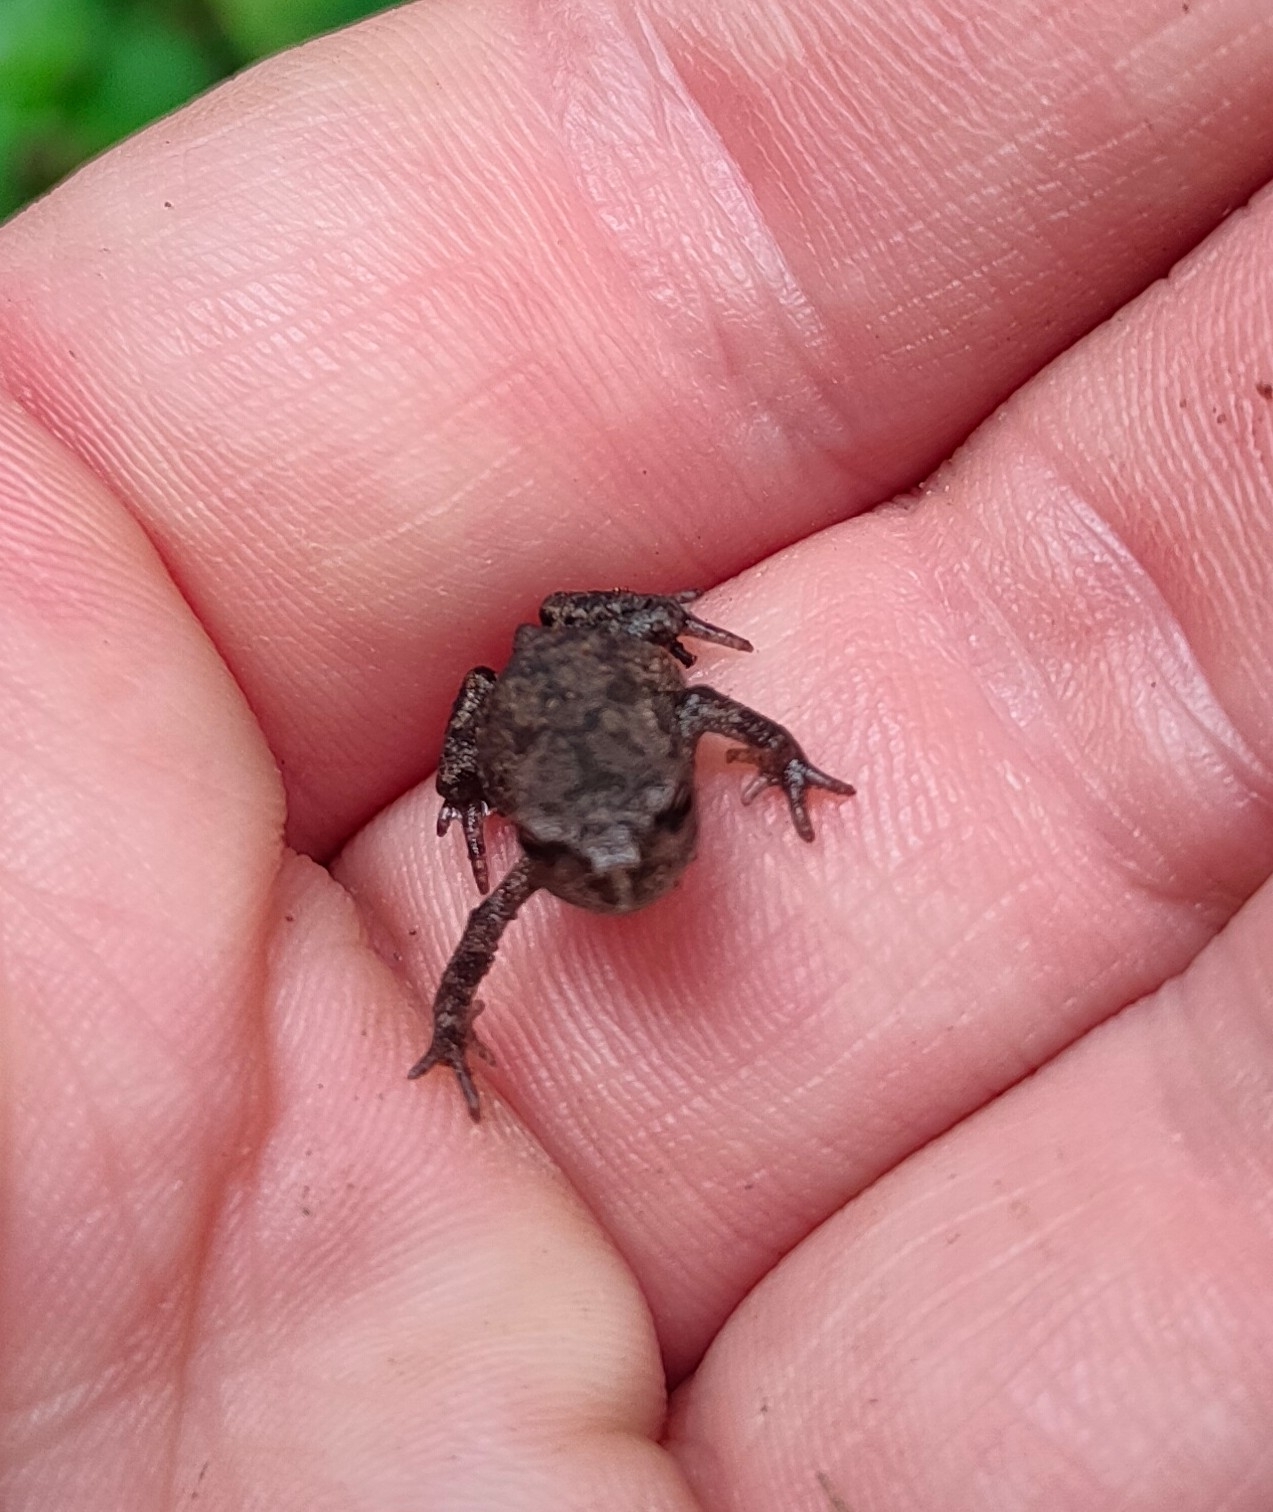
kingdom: Animalia
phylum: Chordata
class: Amphibia
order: Anura
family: Bufonidae
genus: Bufo
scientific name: Bufo bufo
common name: Common toad
